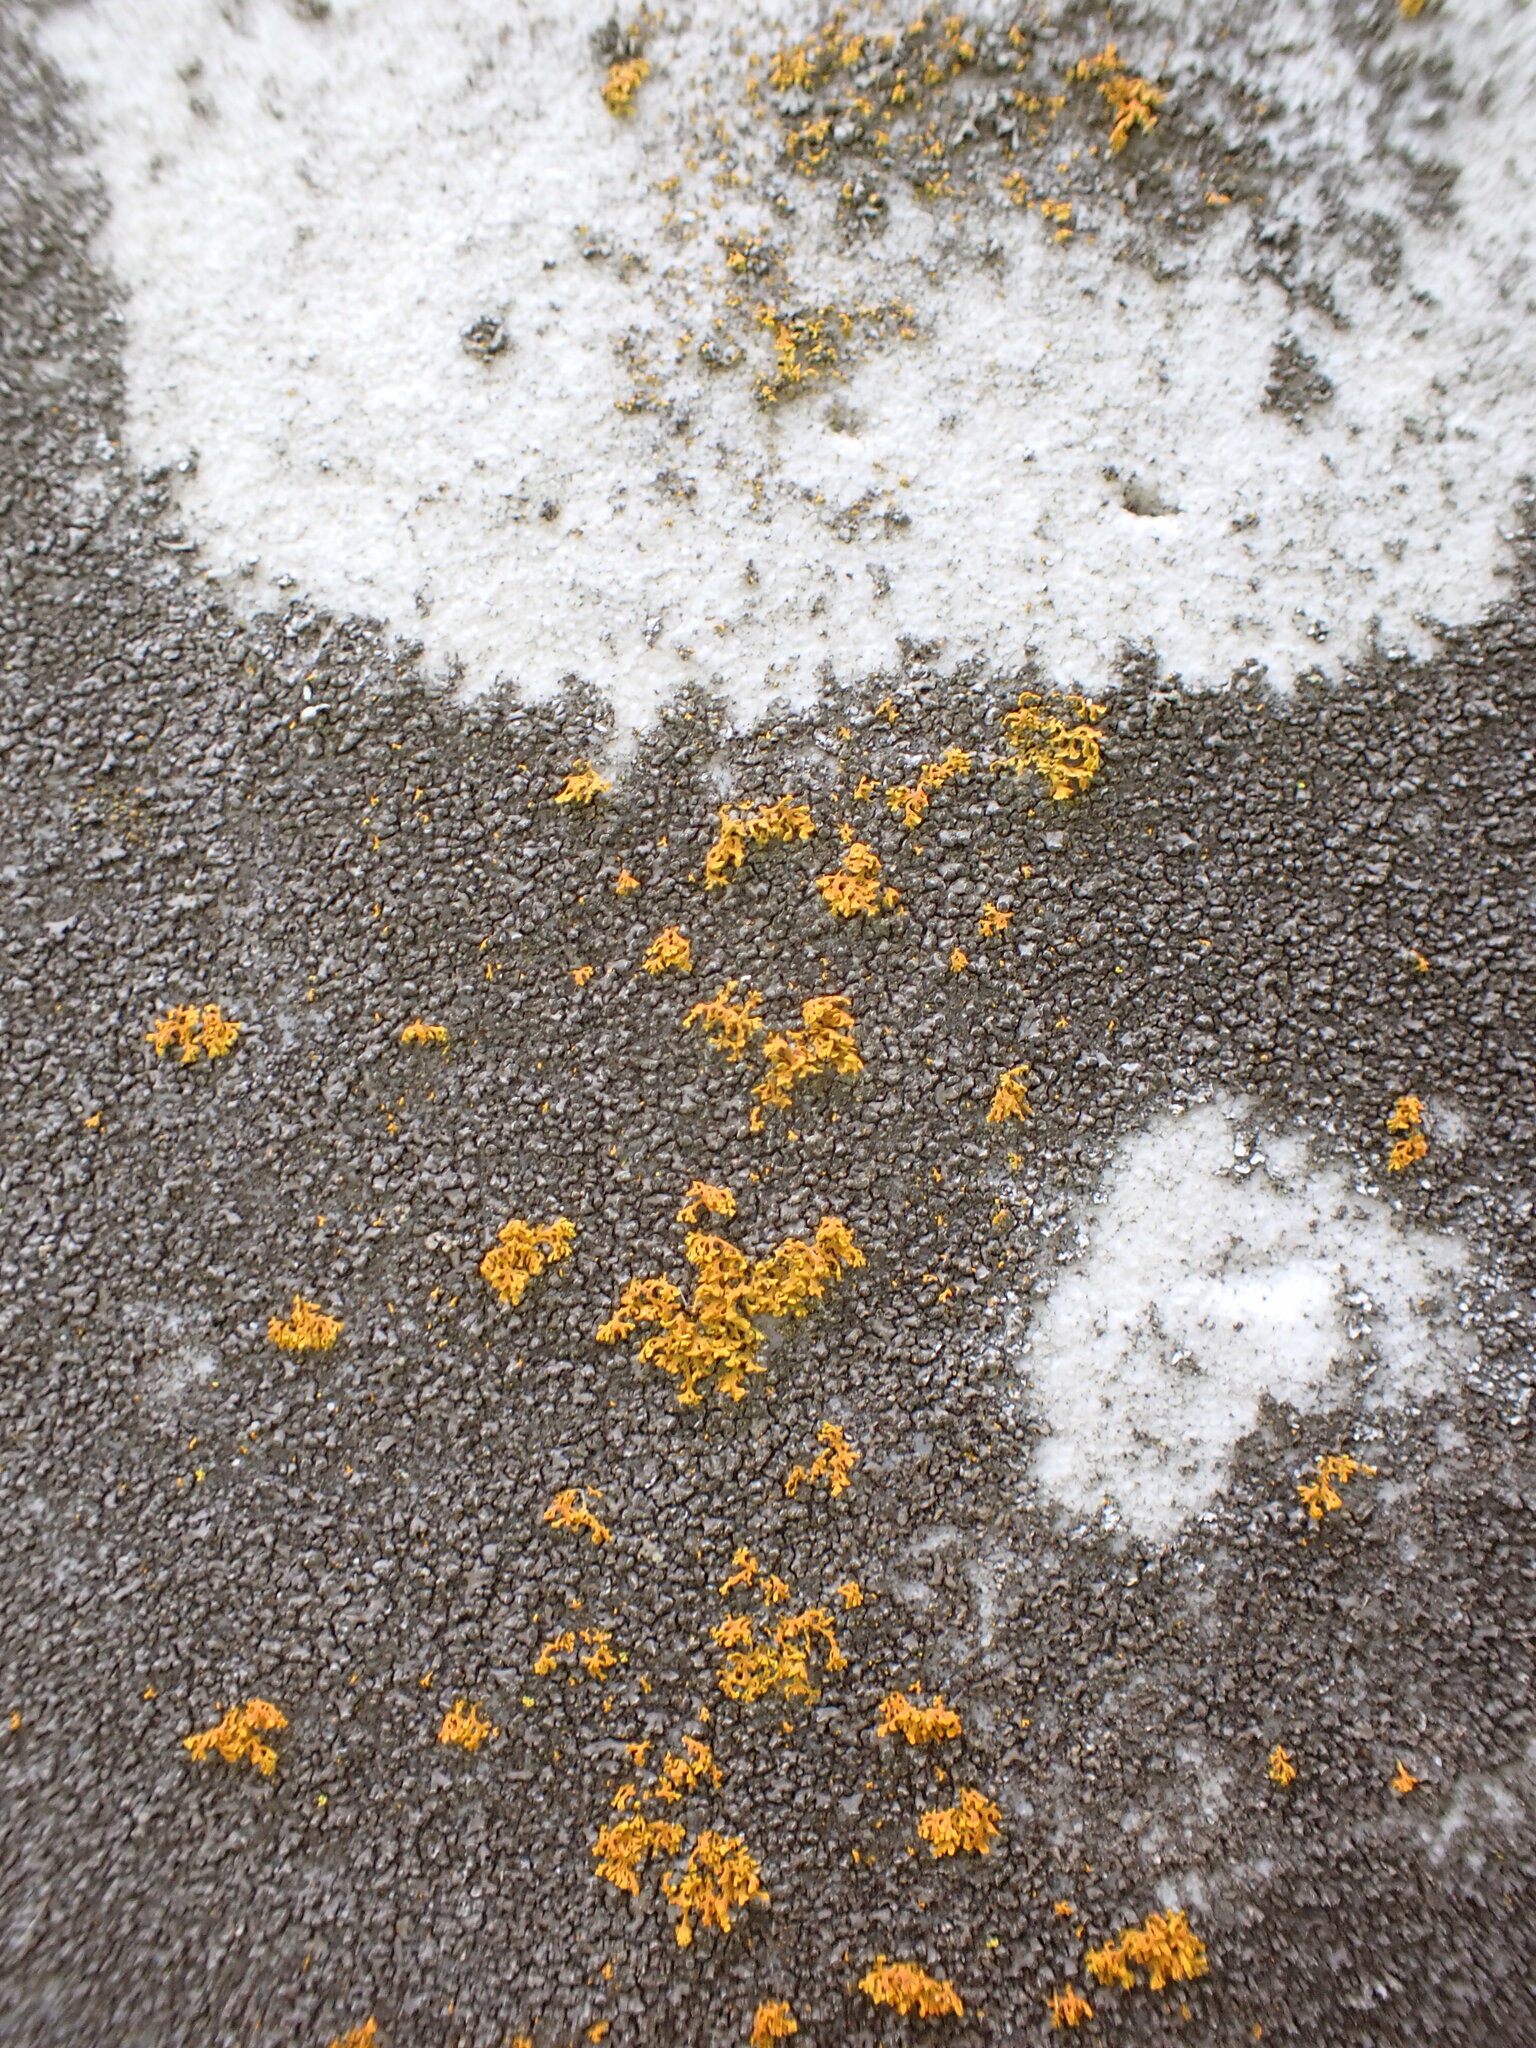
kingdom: Fungi
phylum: Ascomycota
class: Lecanoromycetes
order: Teloschistales
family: Teloschistaceae
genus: Gallowayella
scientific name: Gallowayella weberi
